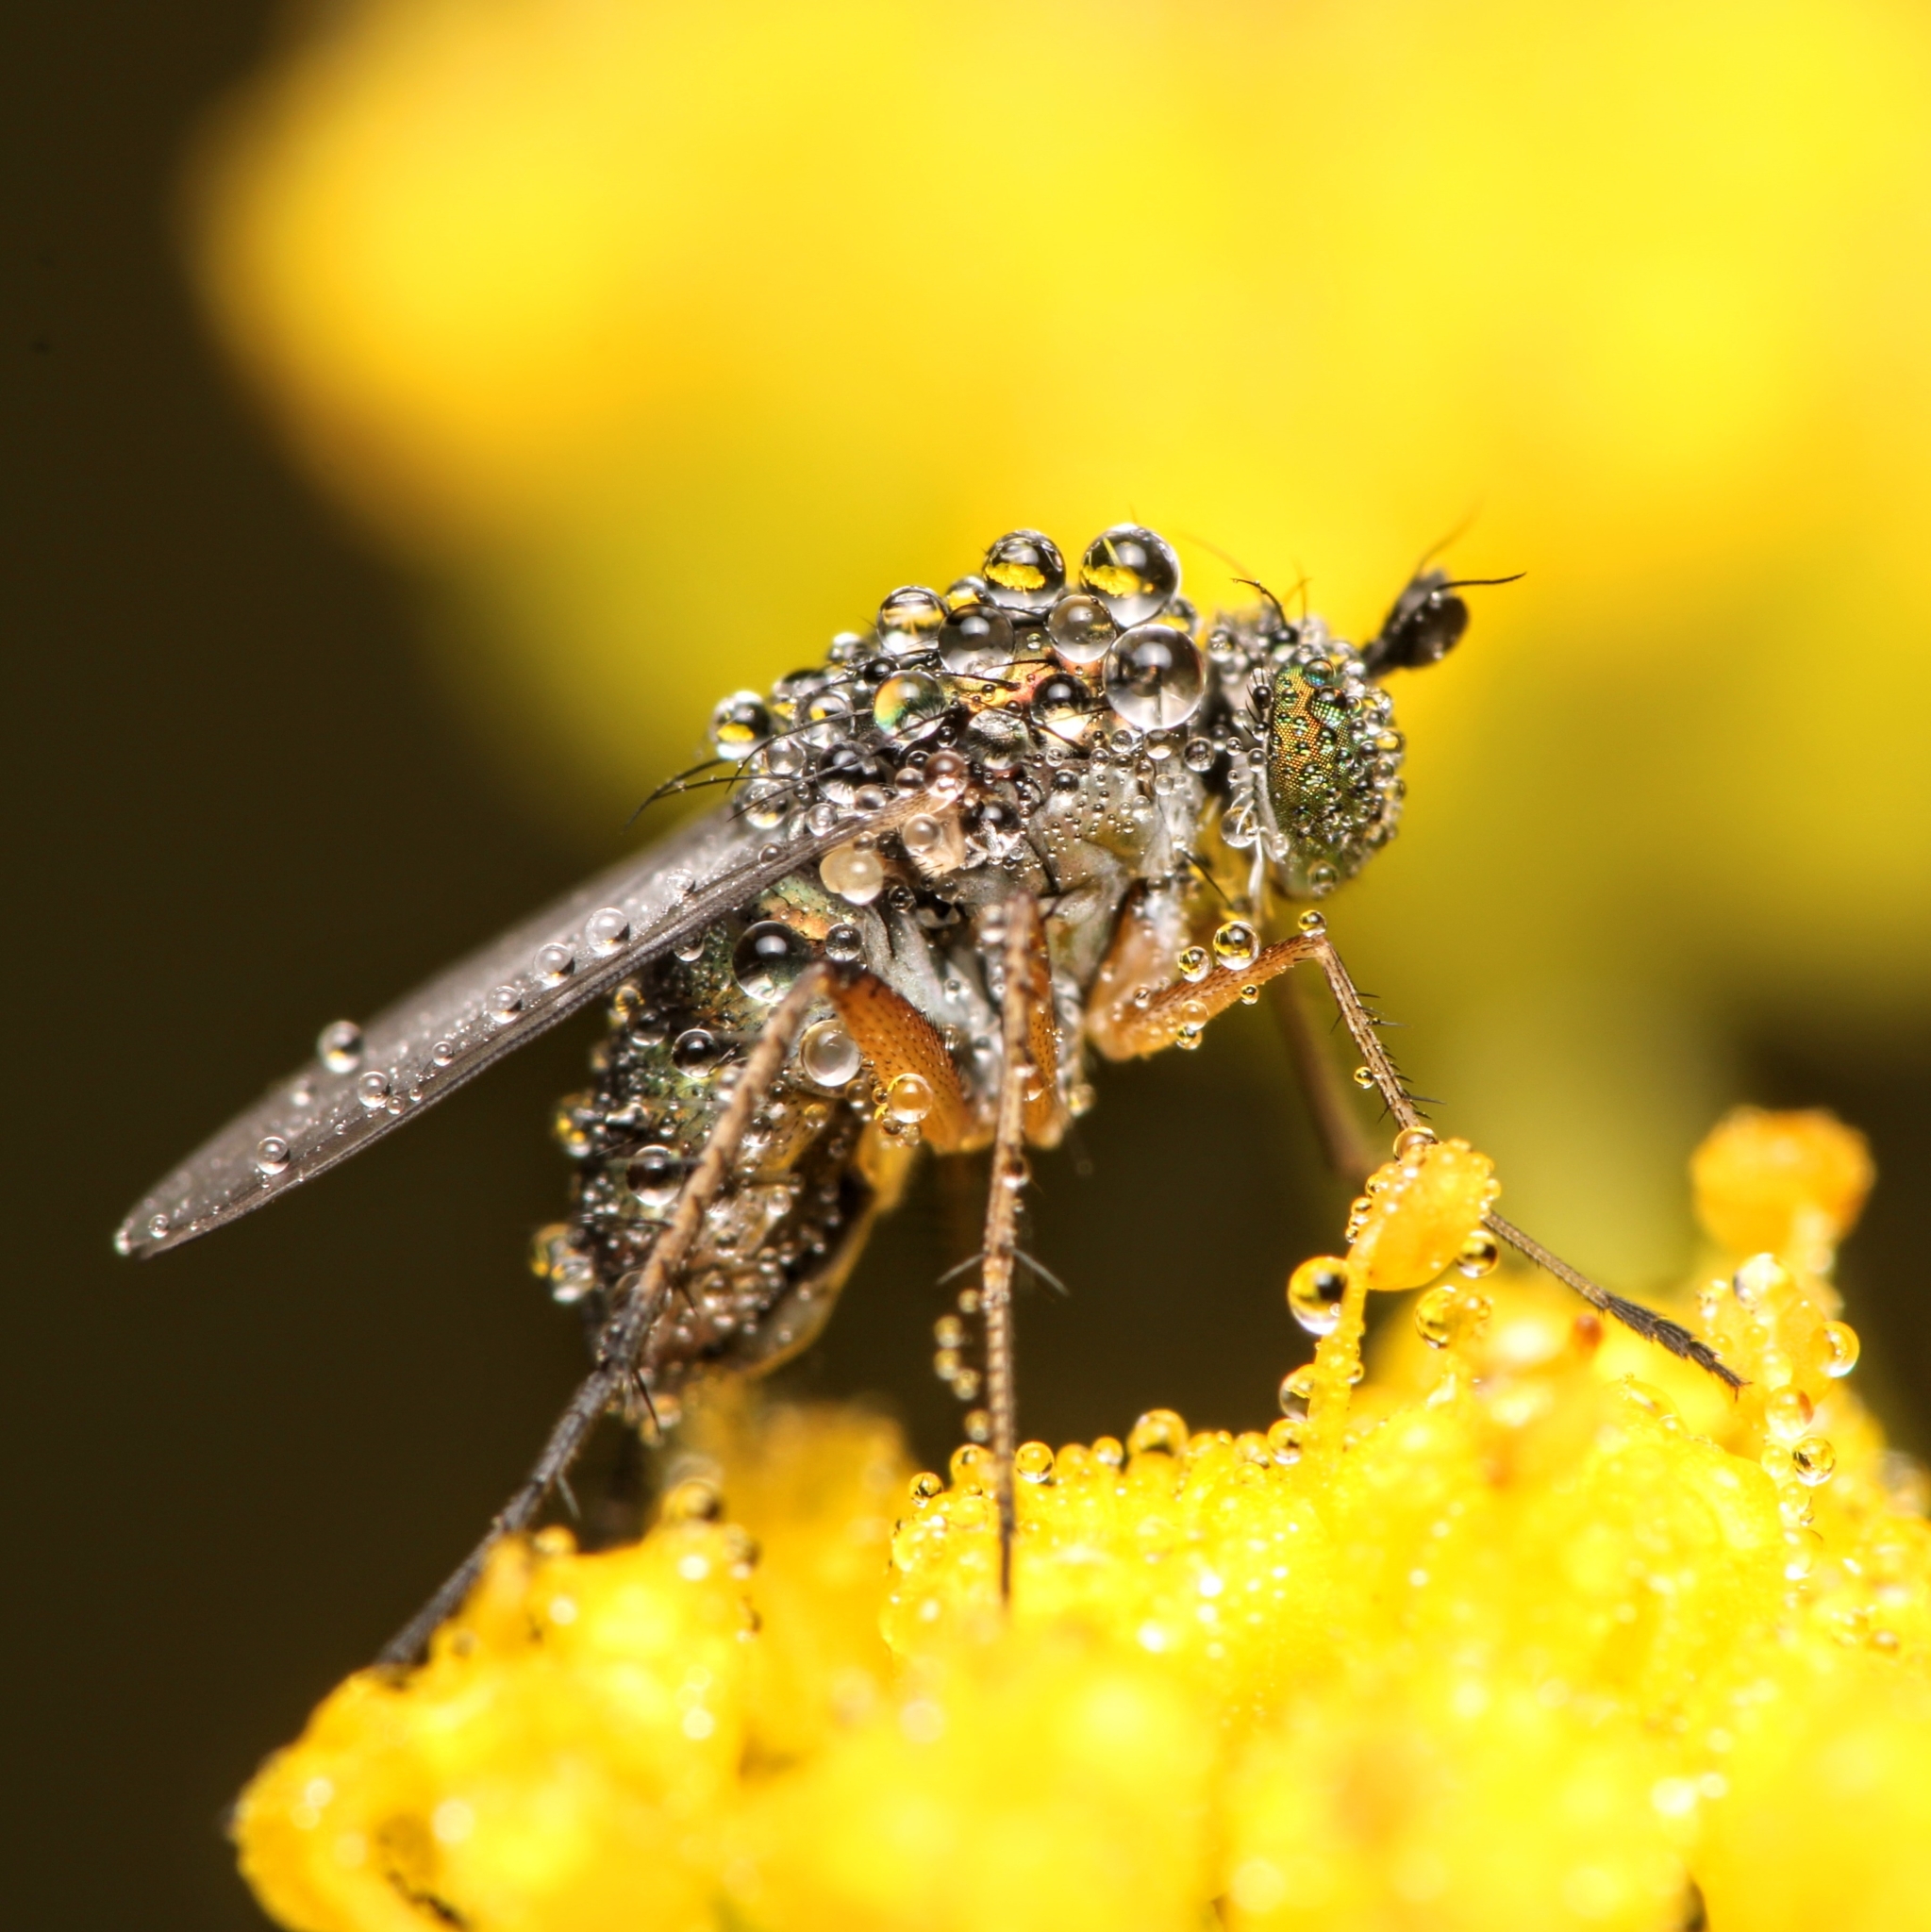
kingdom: Animalia
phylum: Arthropoda
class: Insecta
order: Diptera
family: Dolichopodidae
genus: Dolichopus
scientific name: Dolichopus comatus
